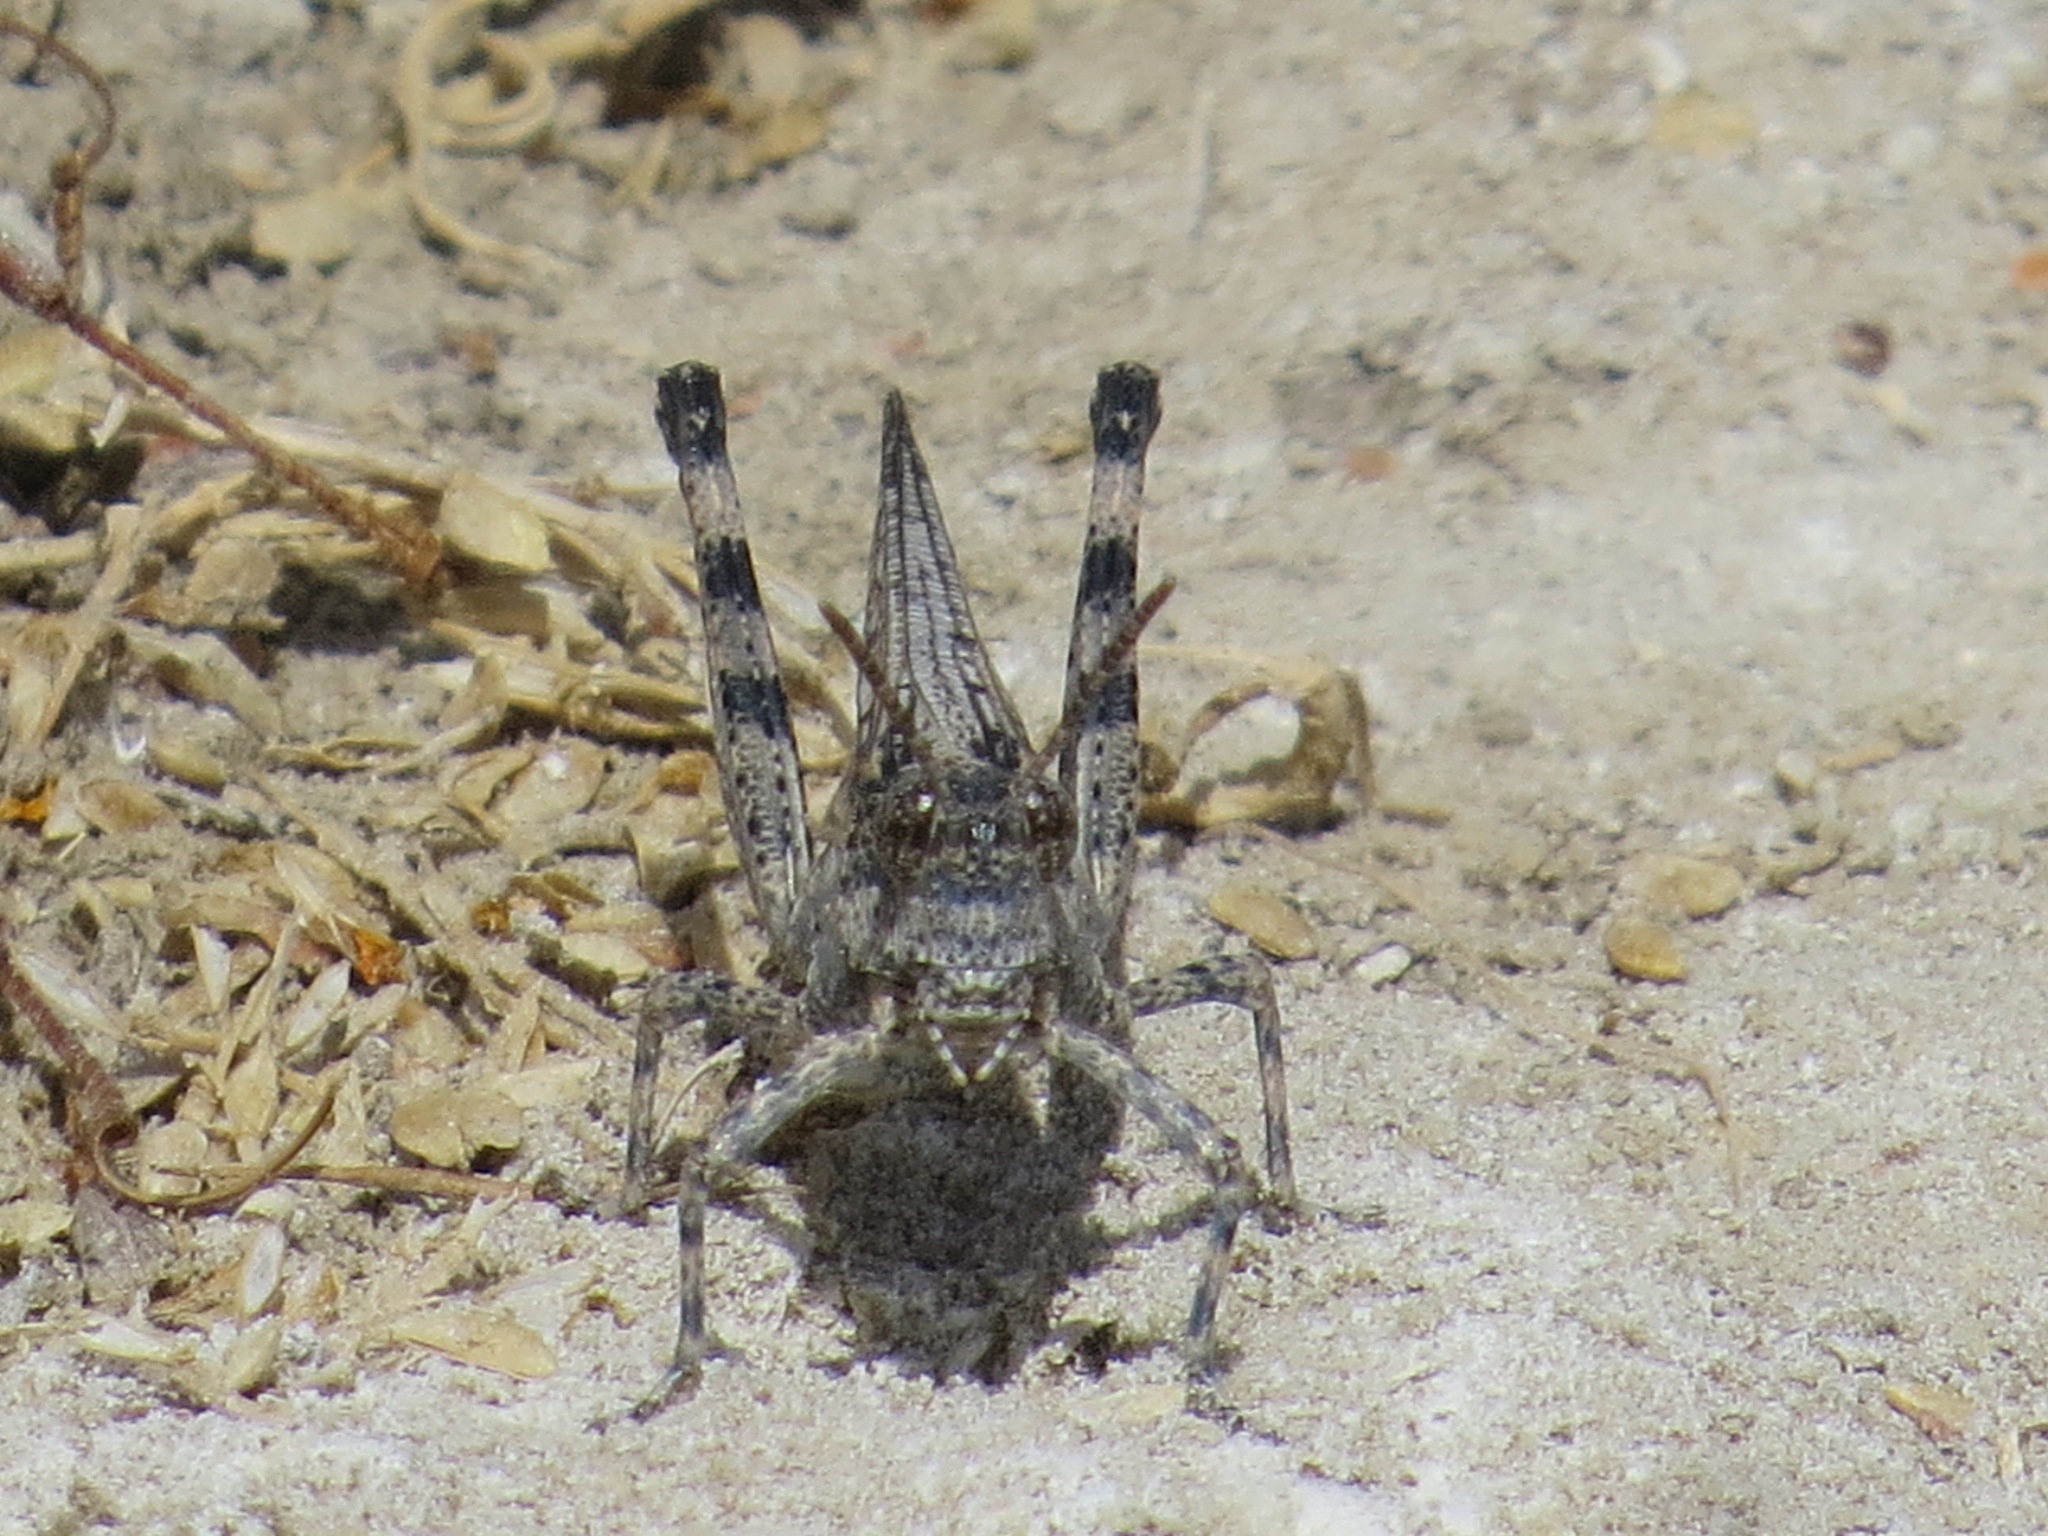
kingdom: Animalia
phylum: Arthropoda
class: Insecta
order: Orthoptera
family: Acrididae
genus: Anconia
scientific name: Anconia integra
